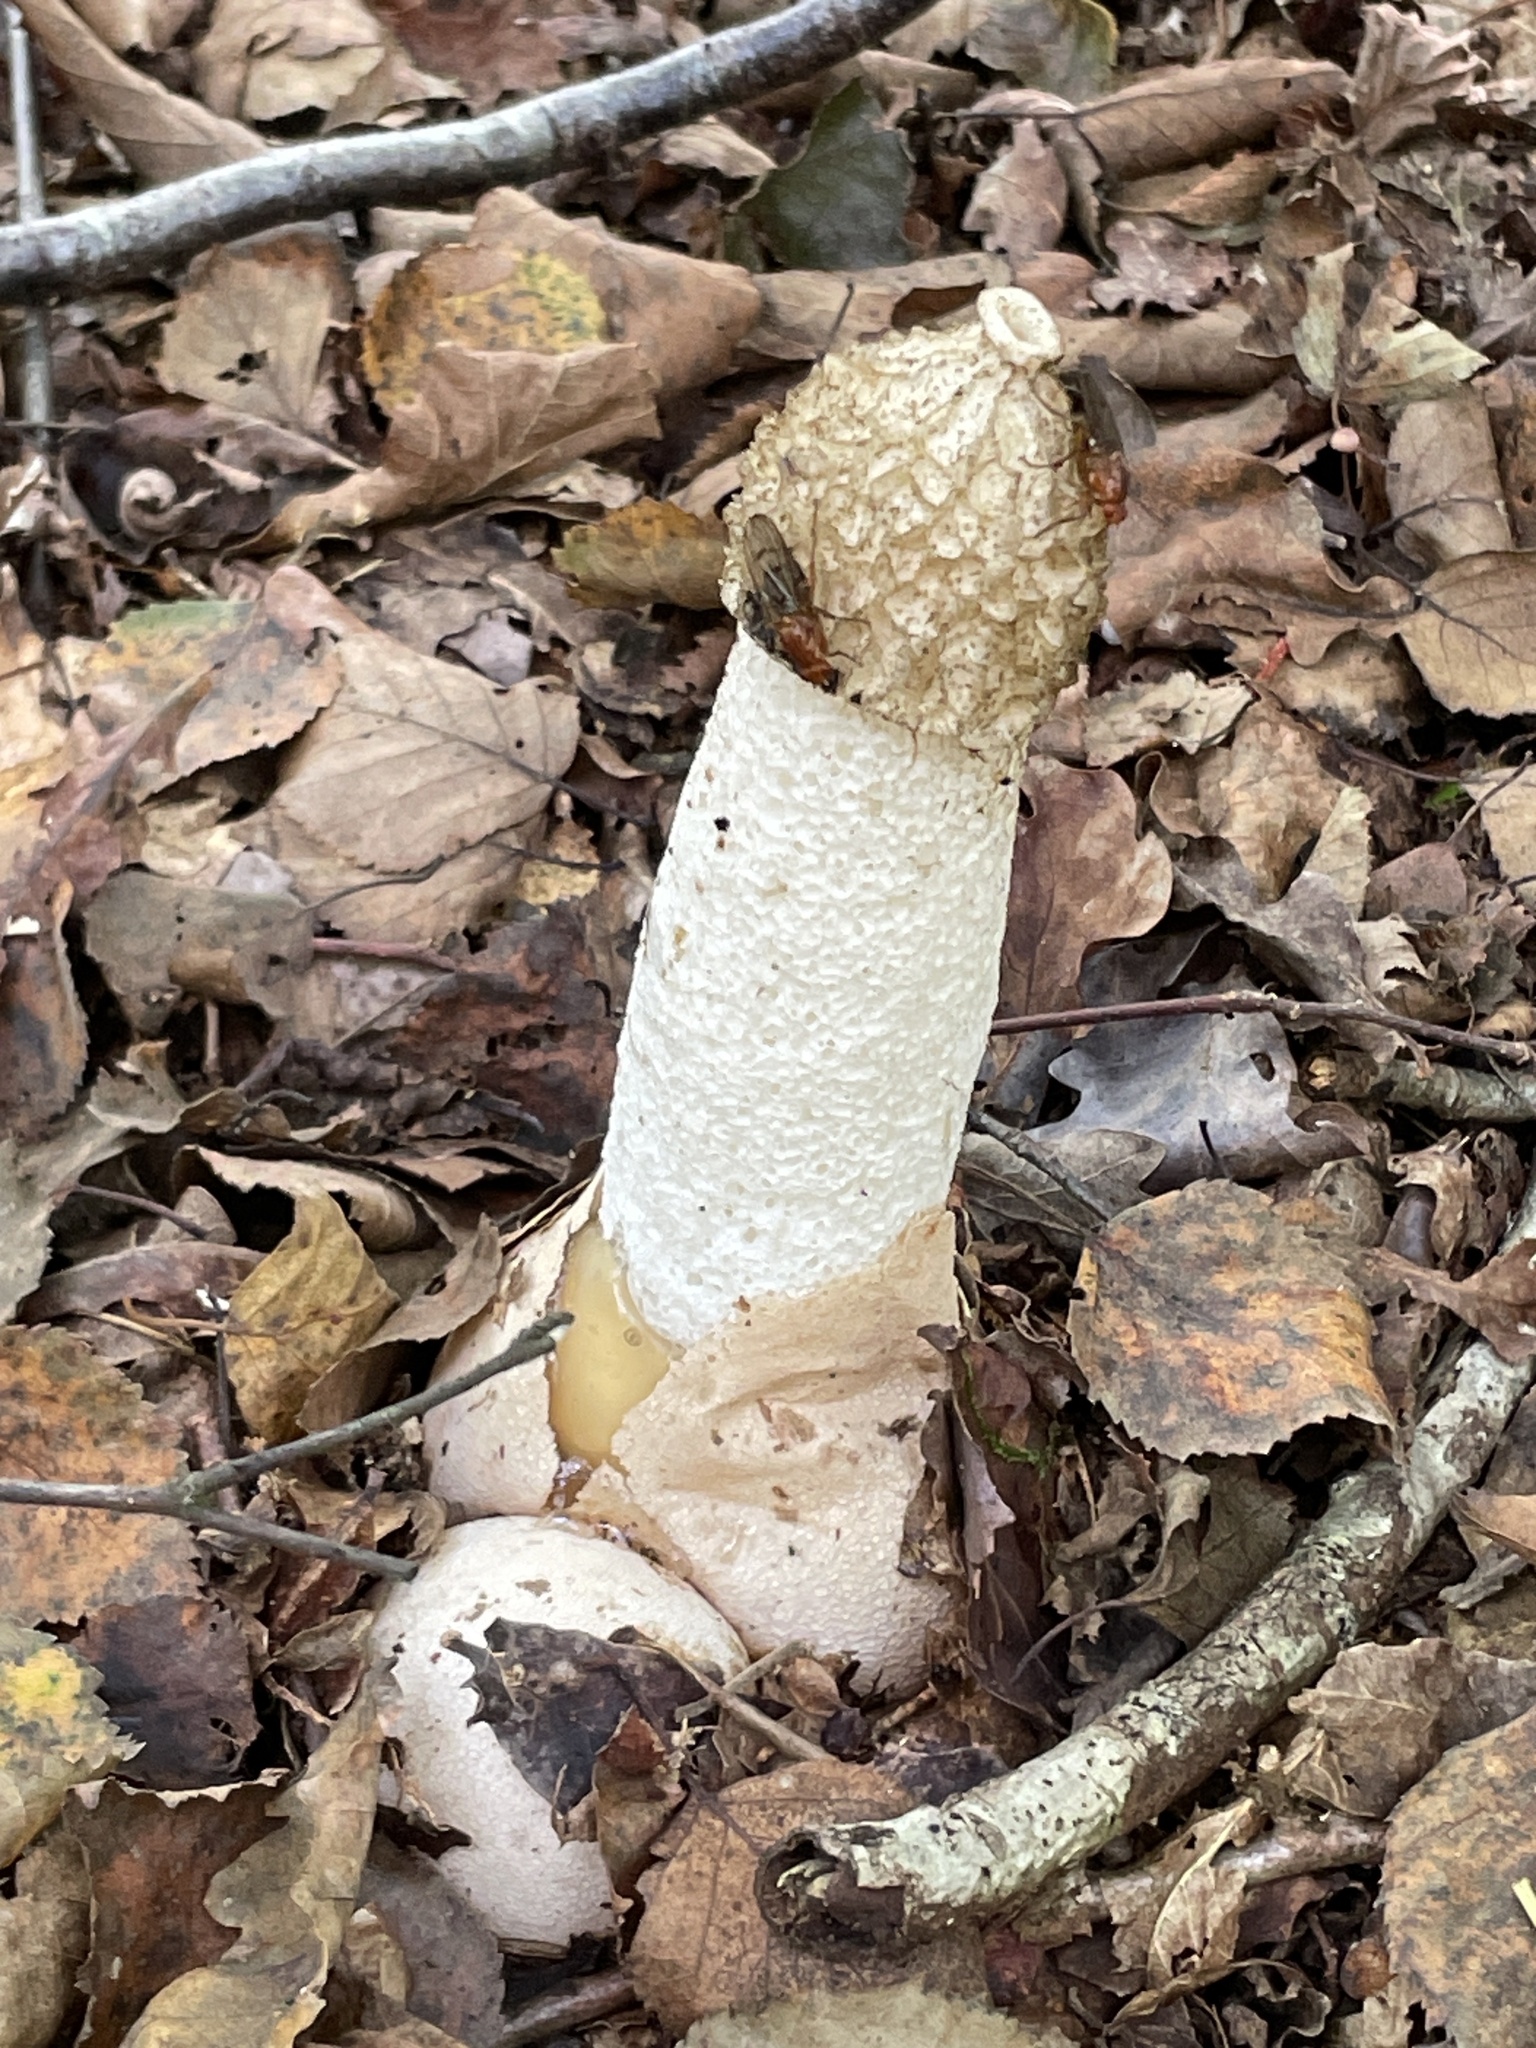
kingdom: Fungi
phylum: Basidiomycota
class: Agaricomycetes
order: Phallales
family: Phallaceae
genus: Phallus
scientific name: Phallus impudicus
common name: Common stinkhorn
